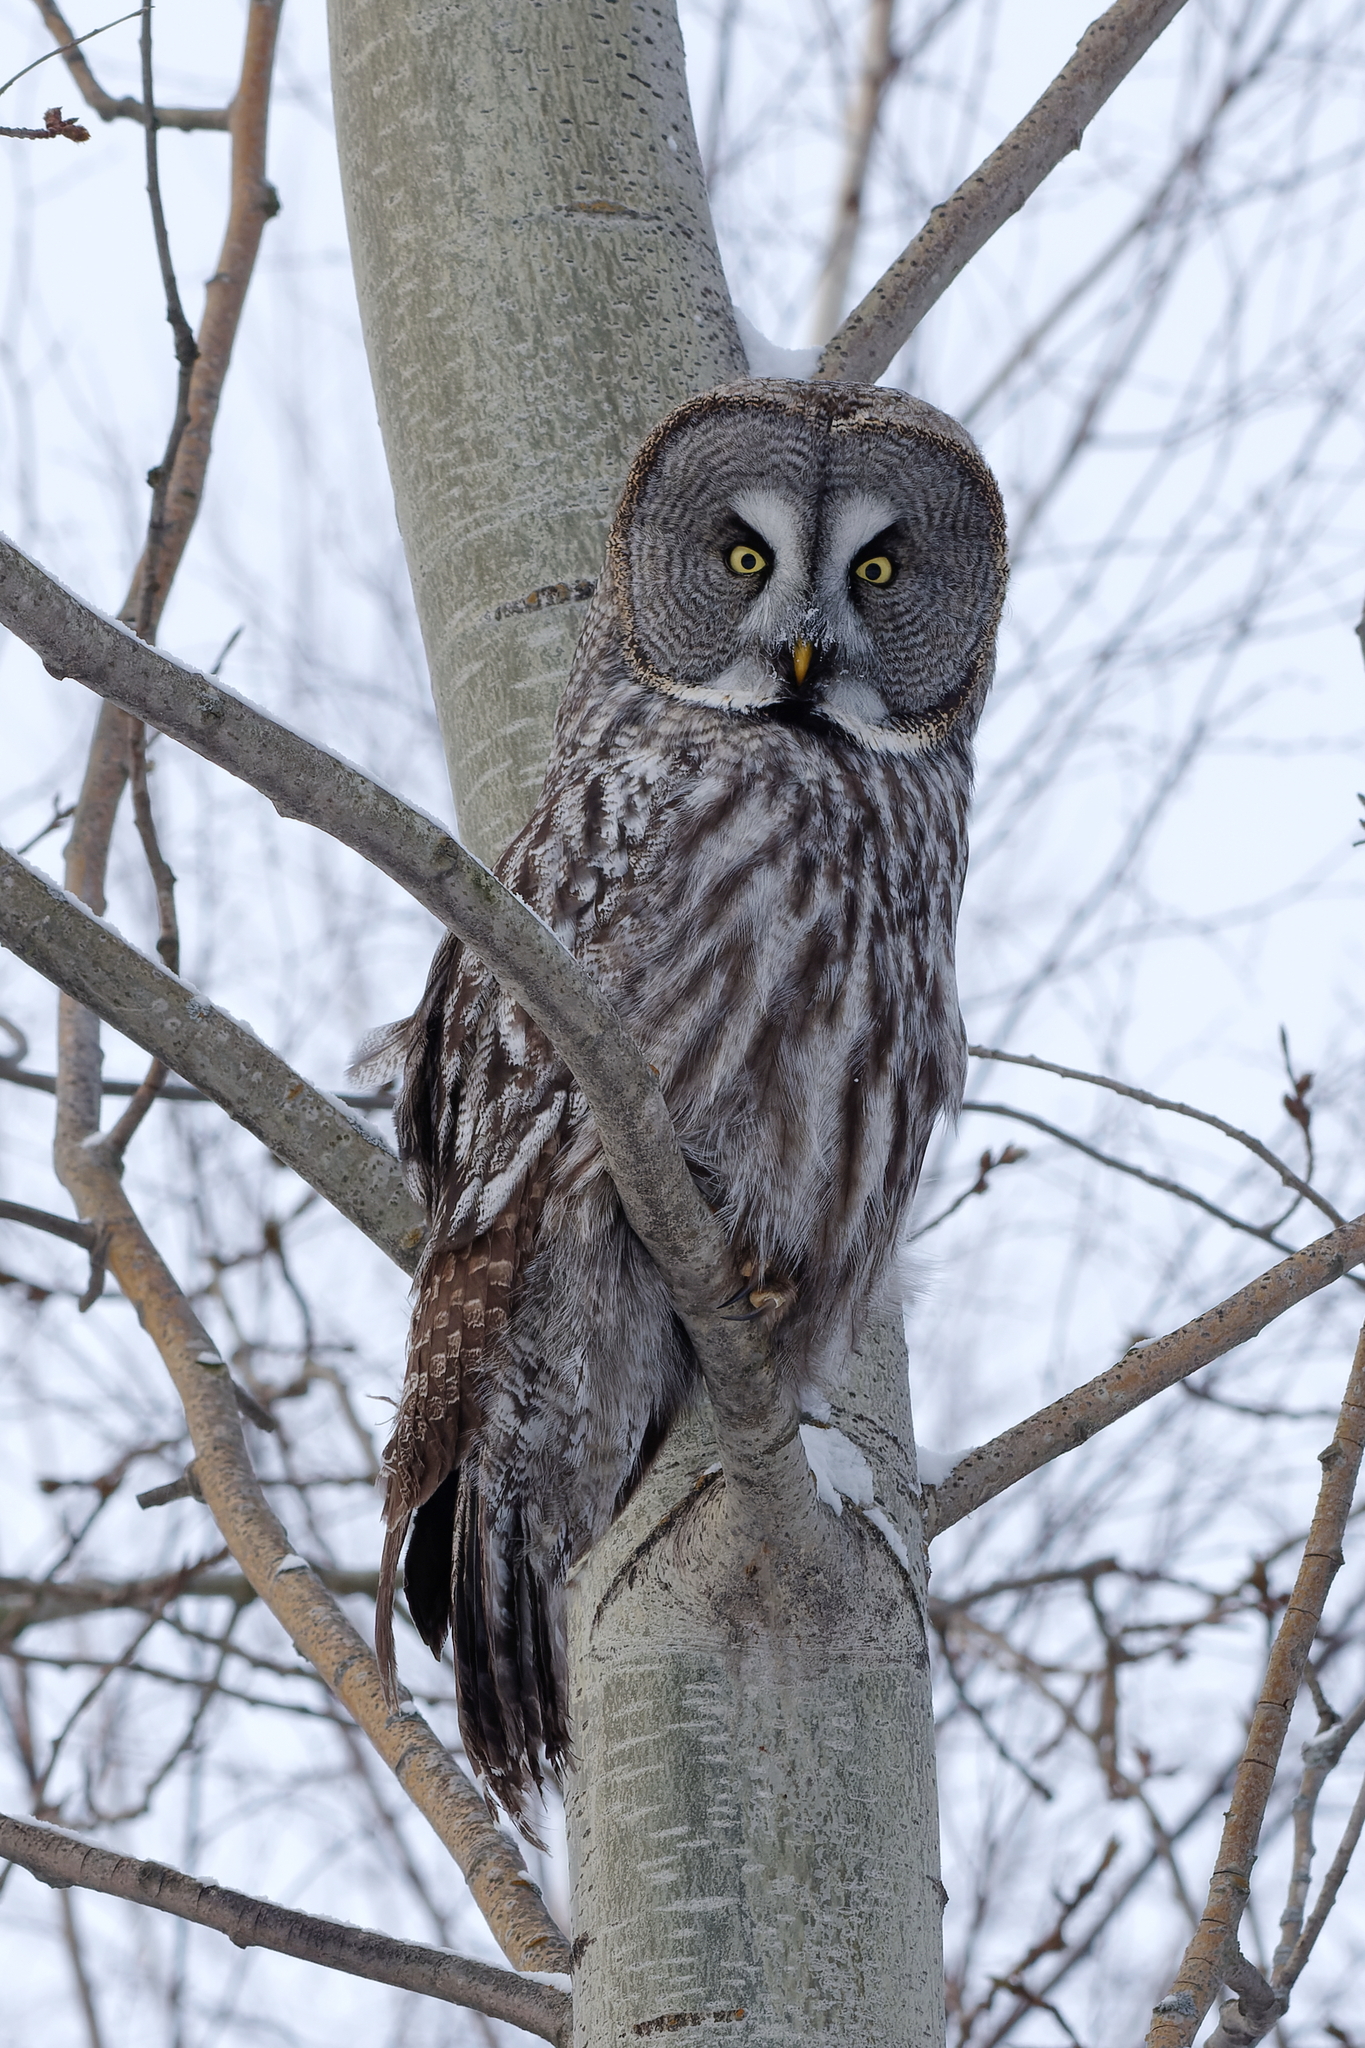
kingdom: Animalia
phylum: Chordata
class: Aves
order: Strigiformes
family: Strigidae
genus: Strix
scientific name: Strix nebulosa
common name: Great grey owl
